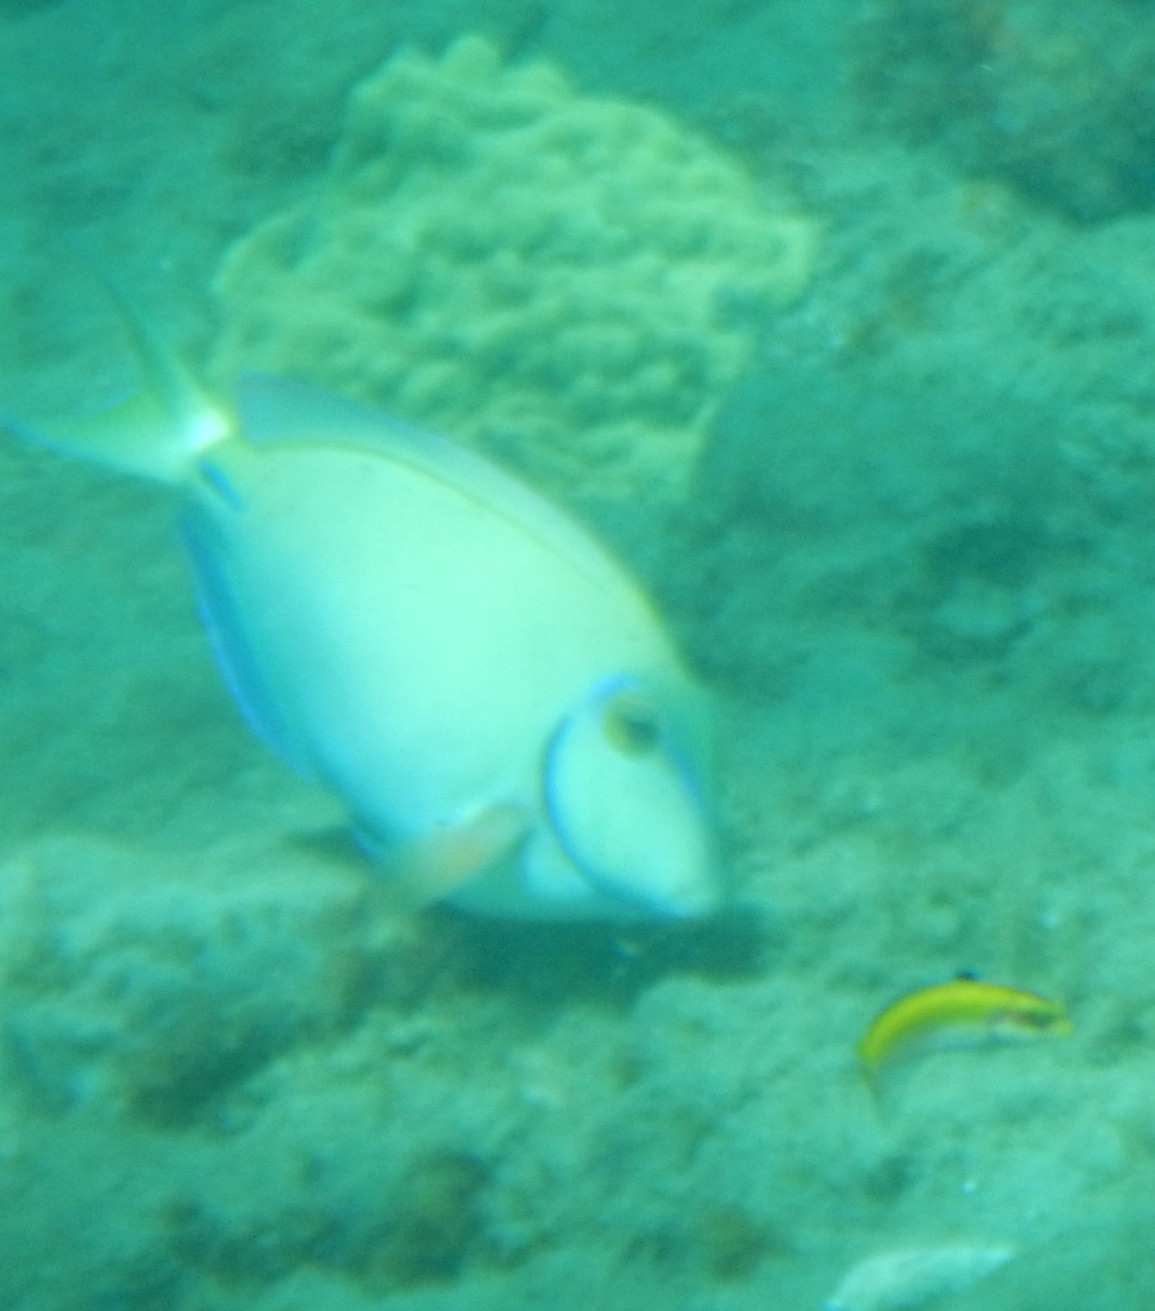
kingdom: Animalia
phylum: Chordata
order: Perciformes
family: Acanthuridae
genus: Acanthurus
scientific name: Acanthurus bahianus
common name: Ocean surgeon
